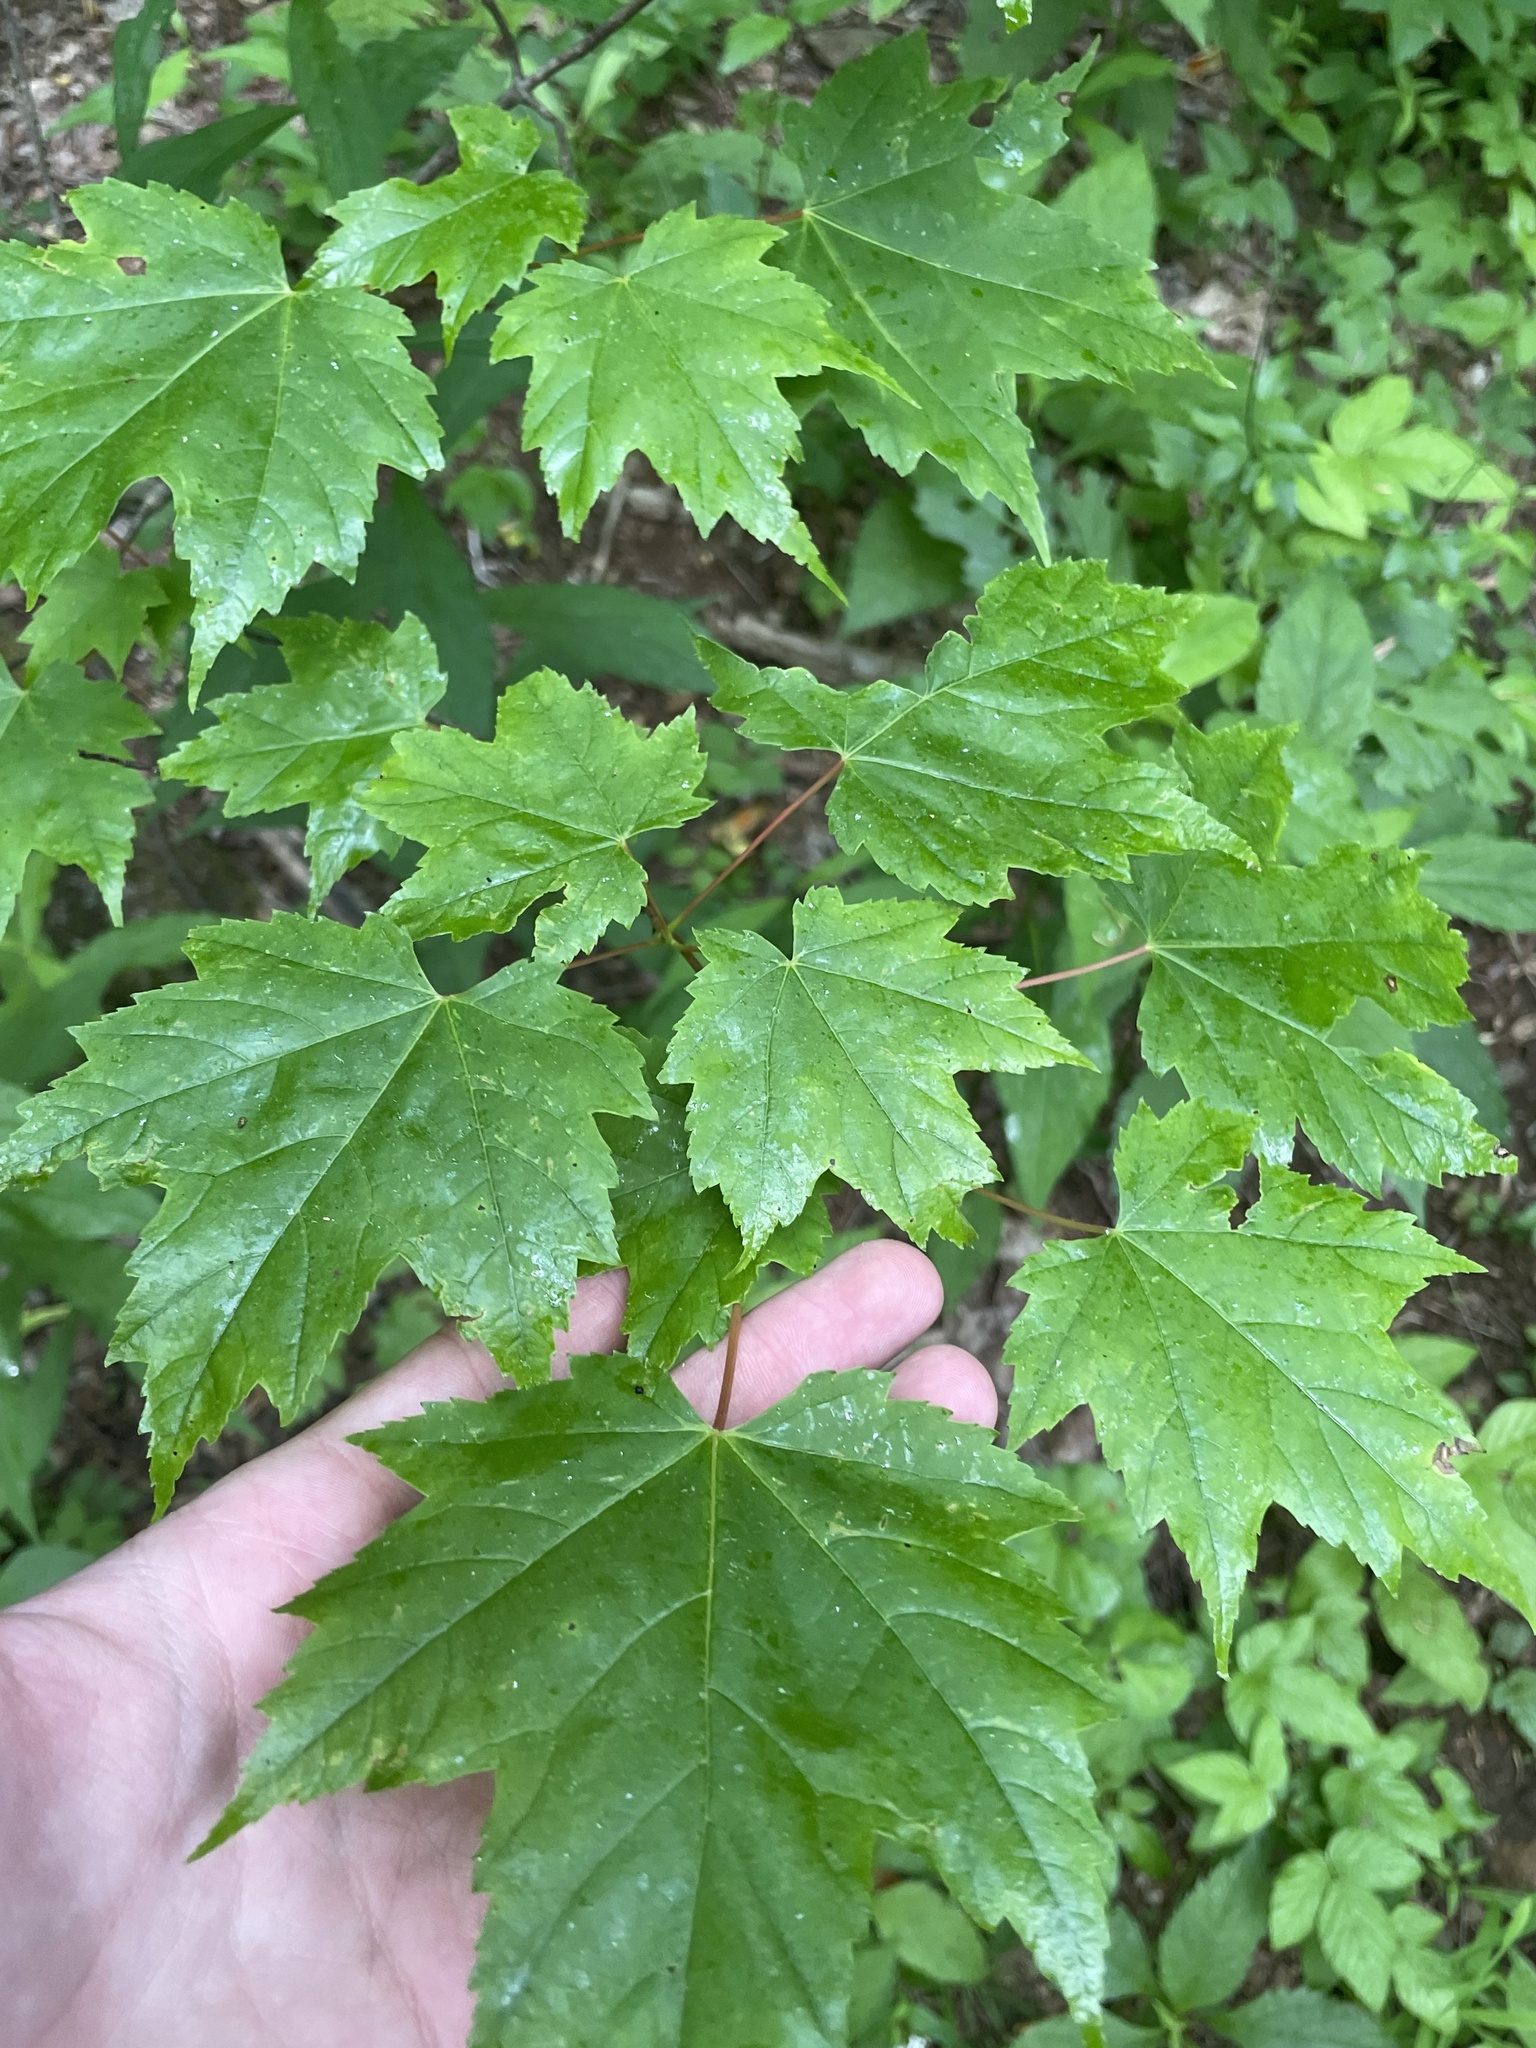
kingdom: Plantae
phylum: Tracheophyta
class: Magnoliopsida
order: Sapindales
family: Sapindaceae
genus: Acer
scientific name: Acer rubrum
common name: Red maple
